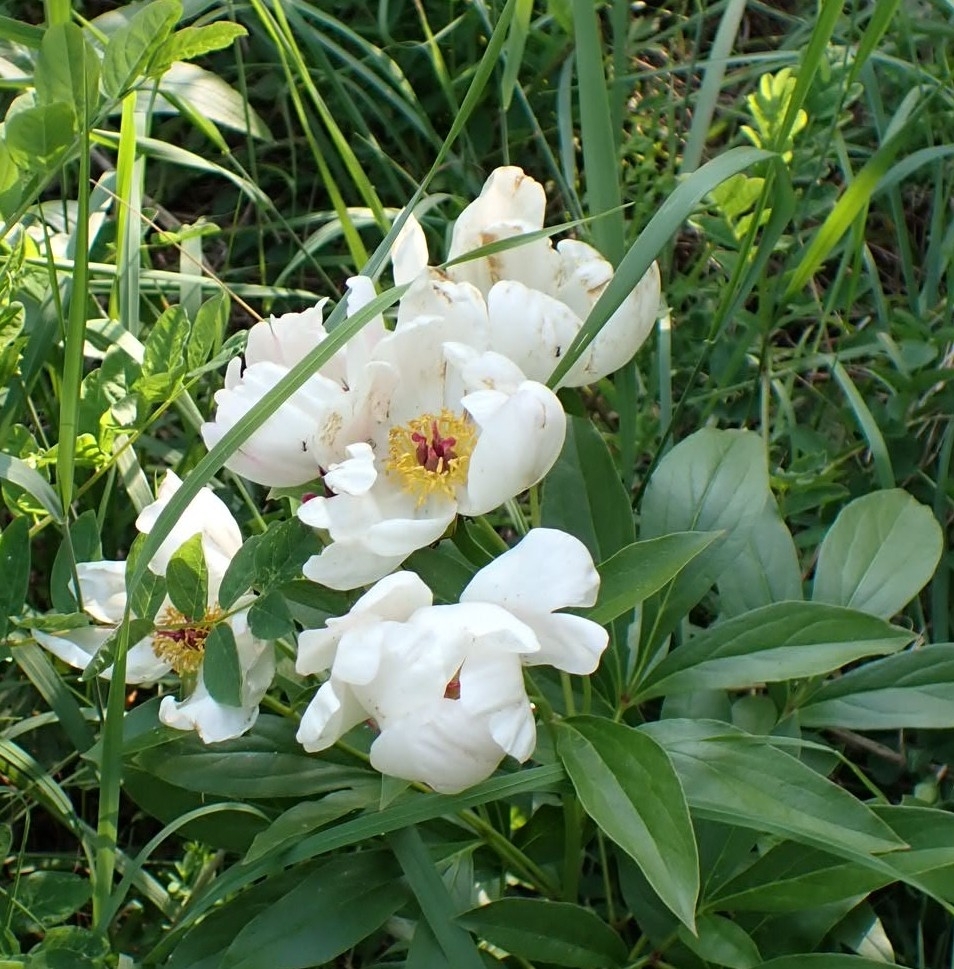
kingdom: Plantae
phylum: Tracheophyta
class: Magnoliopsida
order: Saxifragales
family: Paeoniaceae
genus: Paeonia
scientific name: Paeonia lactiflora
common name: Chinese peony
